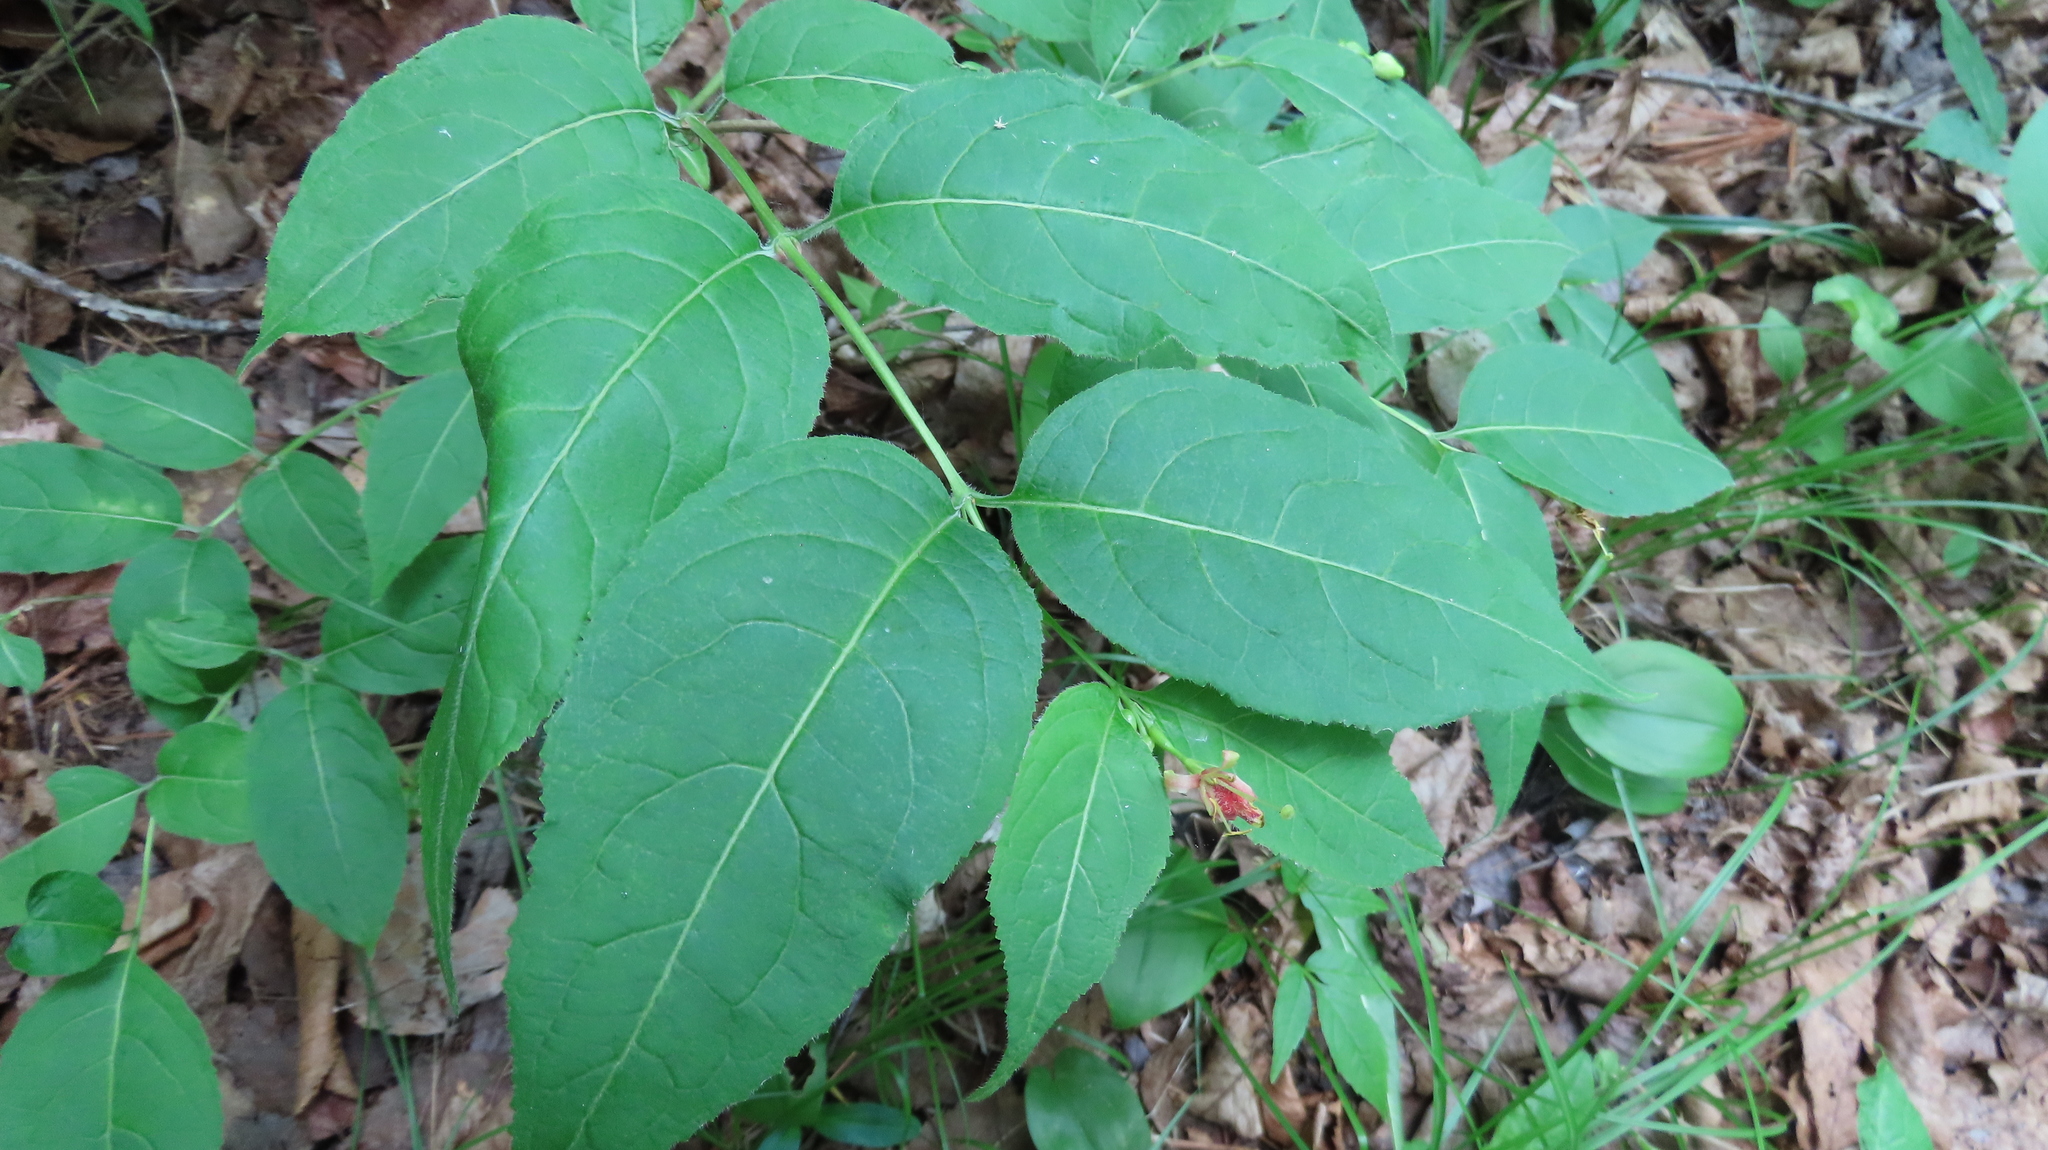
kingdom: Plantae
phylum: Tracheophyta
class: Magnoliopsida
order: Dipsacales
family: Caprifoliaceae
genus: Diervilla
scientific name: Diervilla lonicera
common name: Bush-honeysuckle
